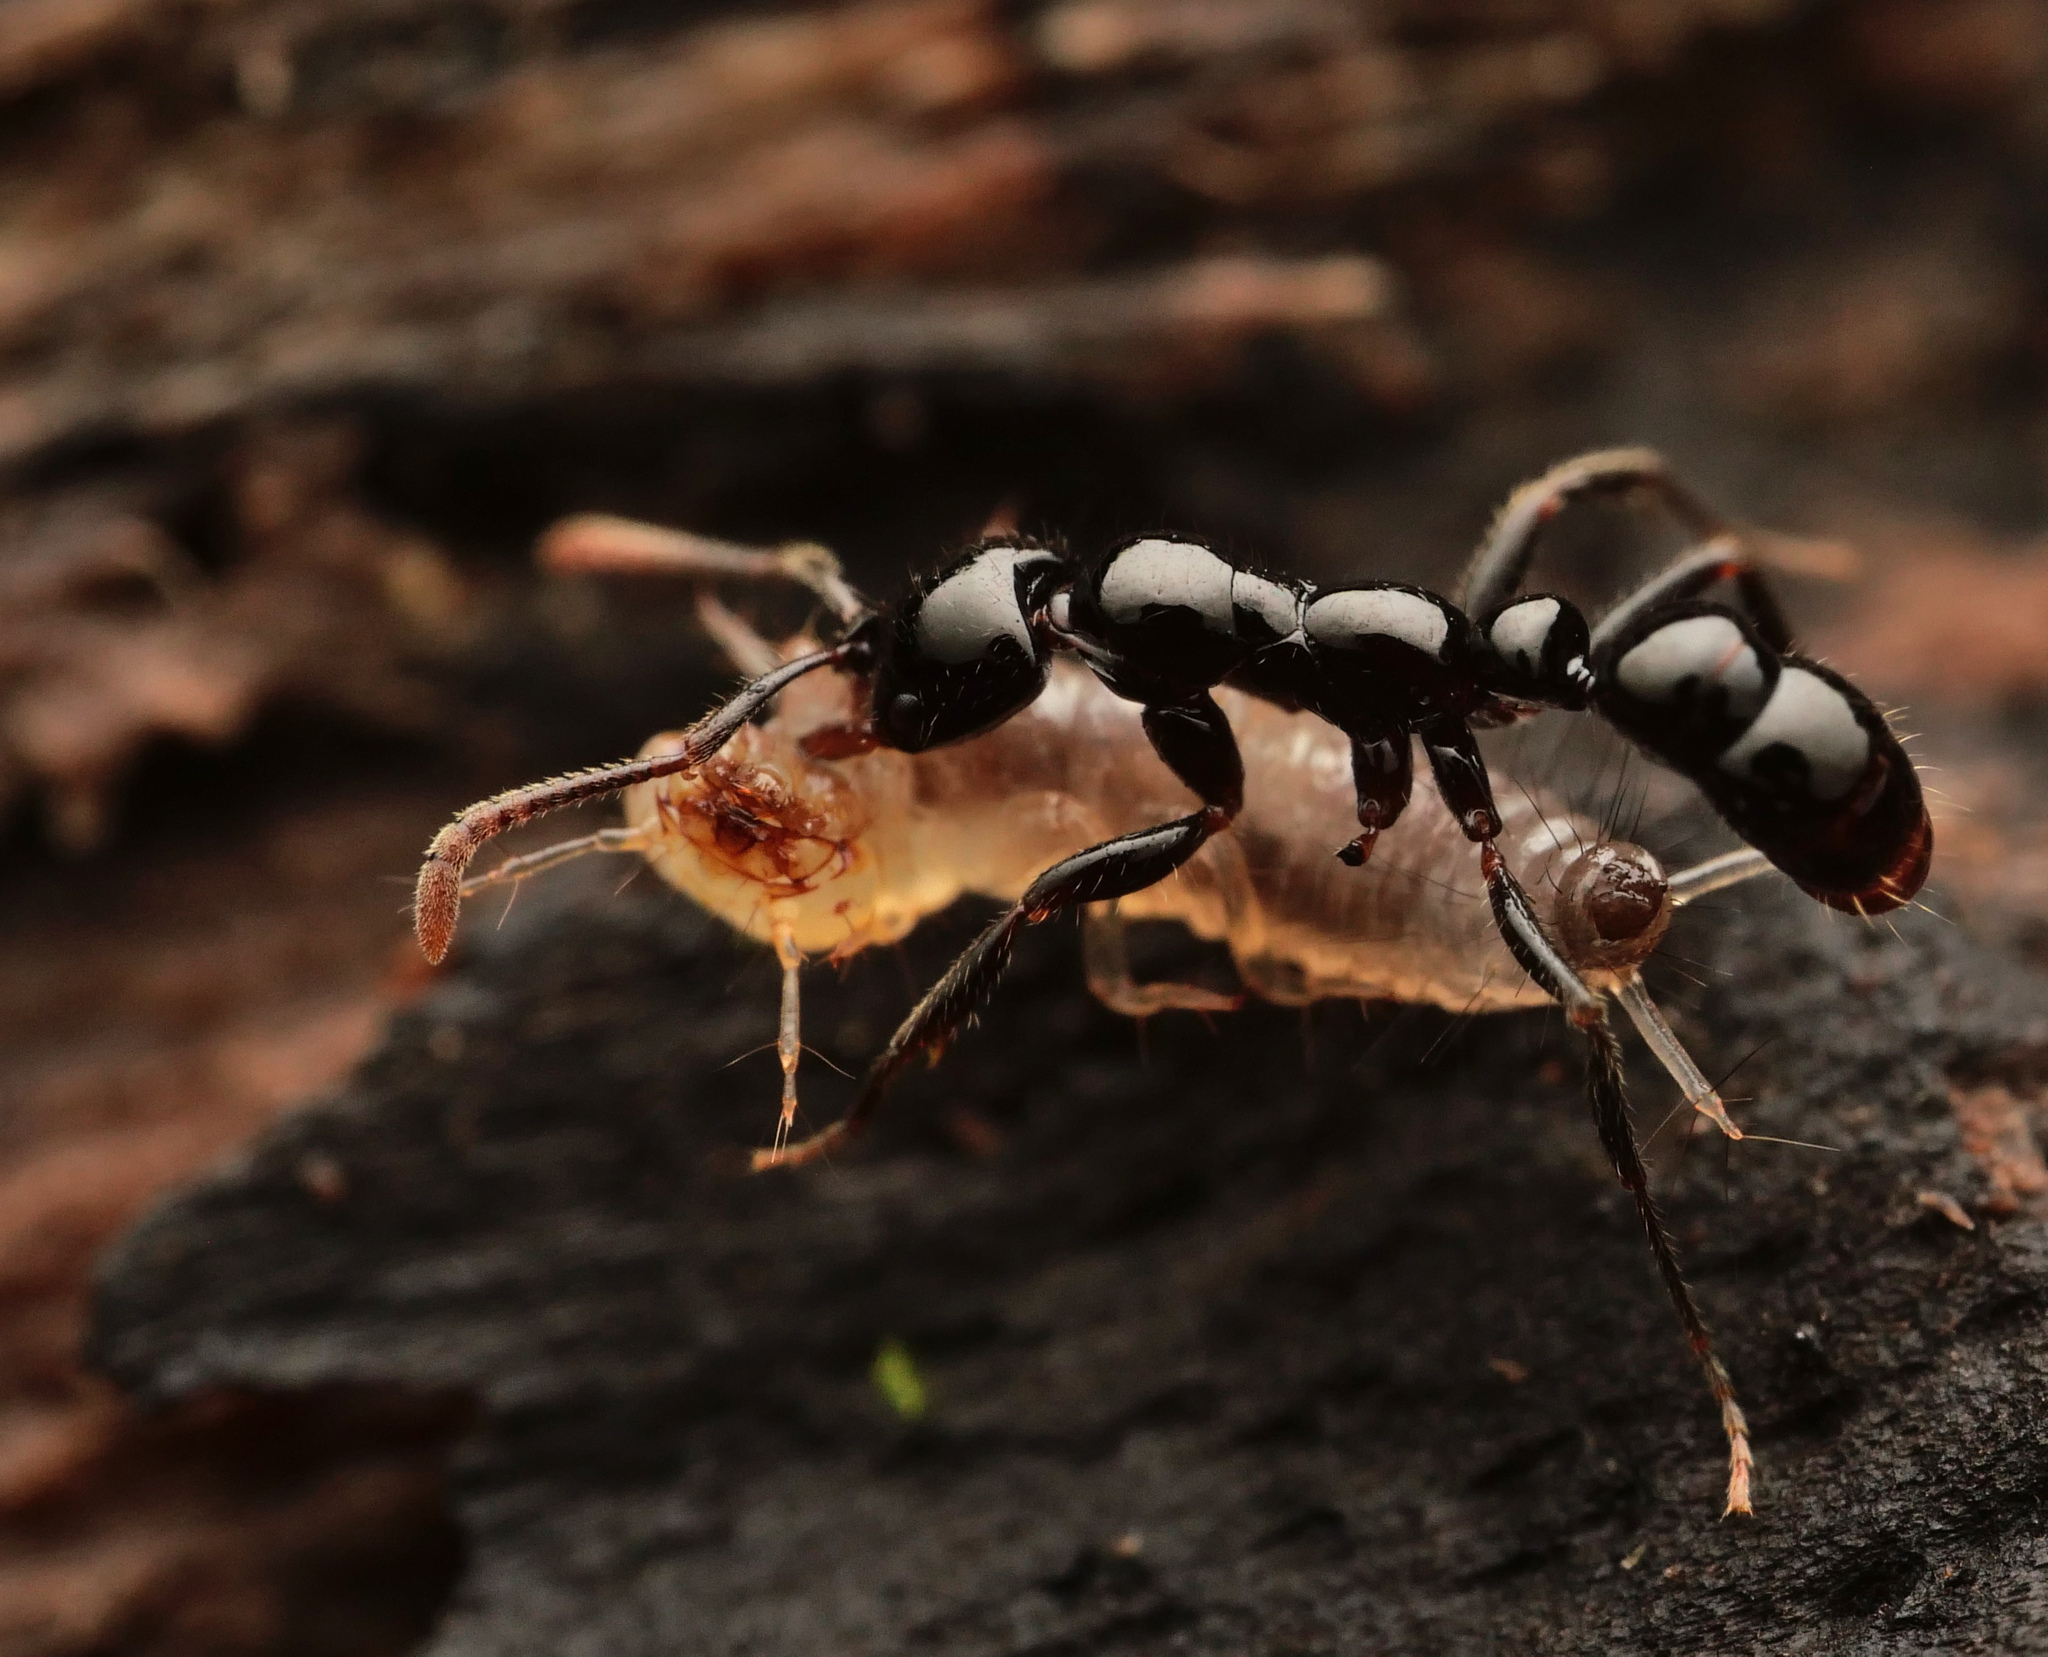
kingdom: Animalia
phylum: Arthropoda
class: Insecta
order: Hymenoptera
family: Formicidae
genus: Myopias
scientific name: Myopias latinoda
